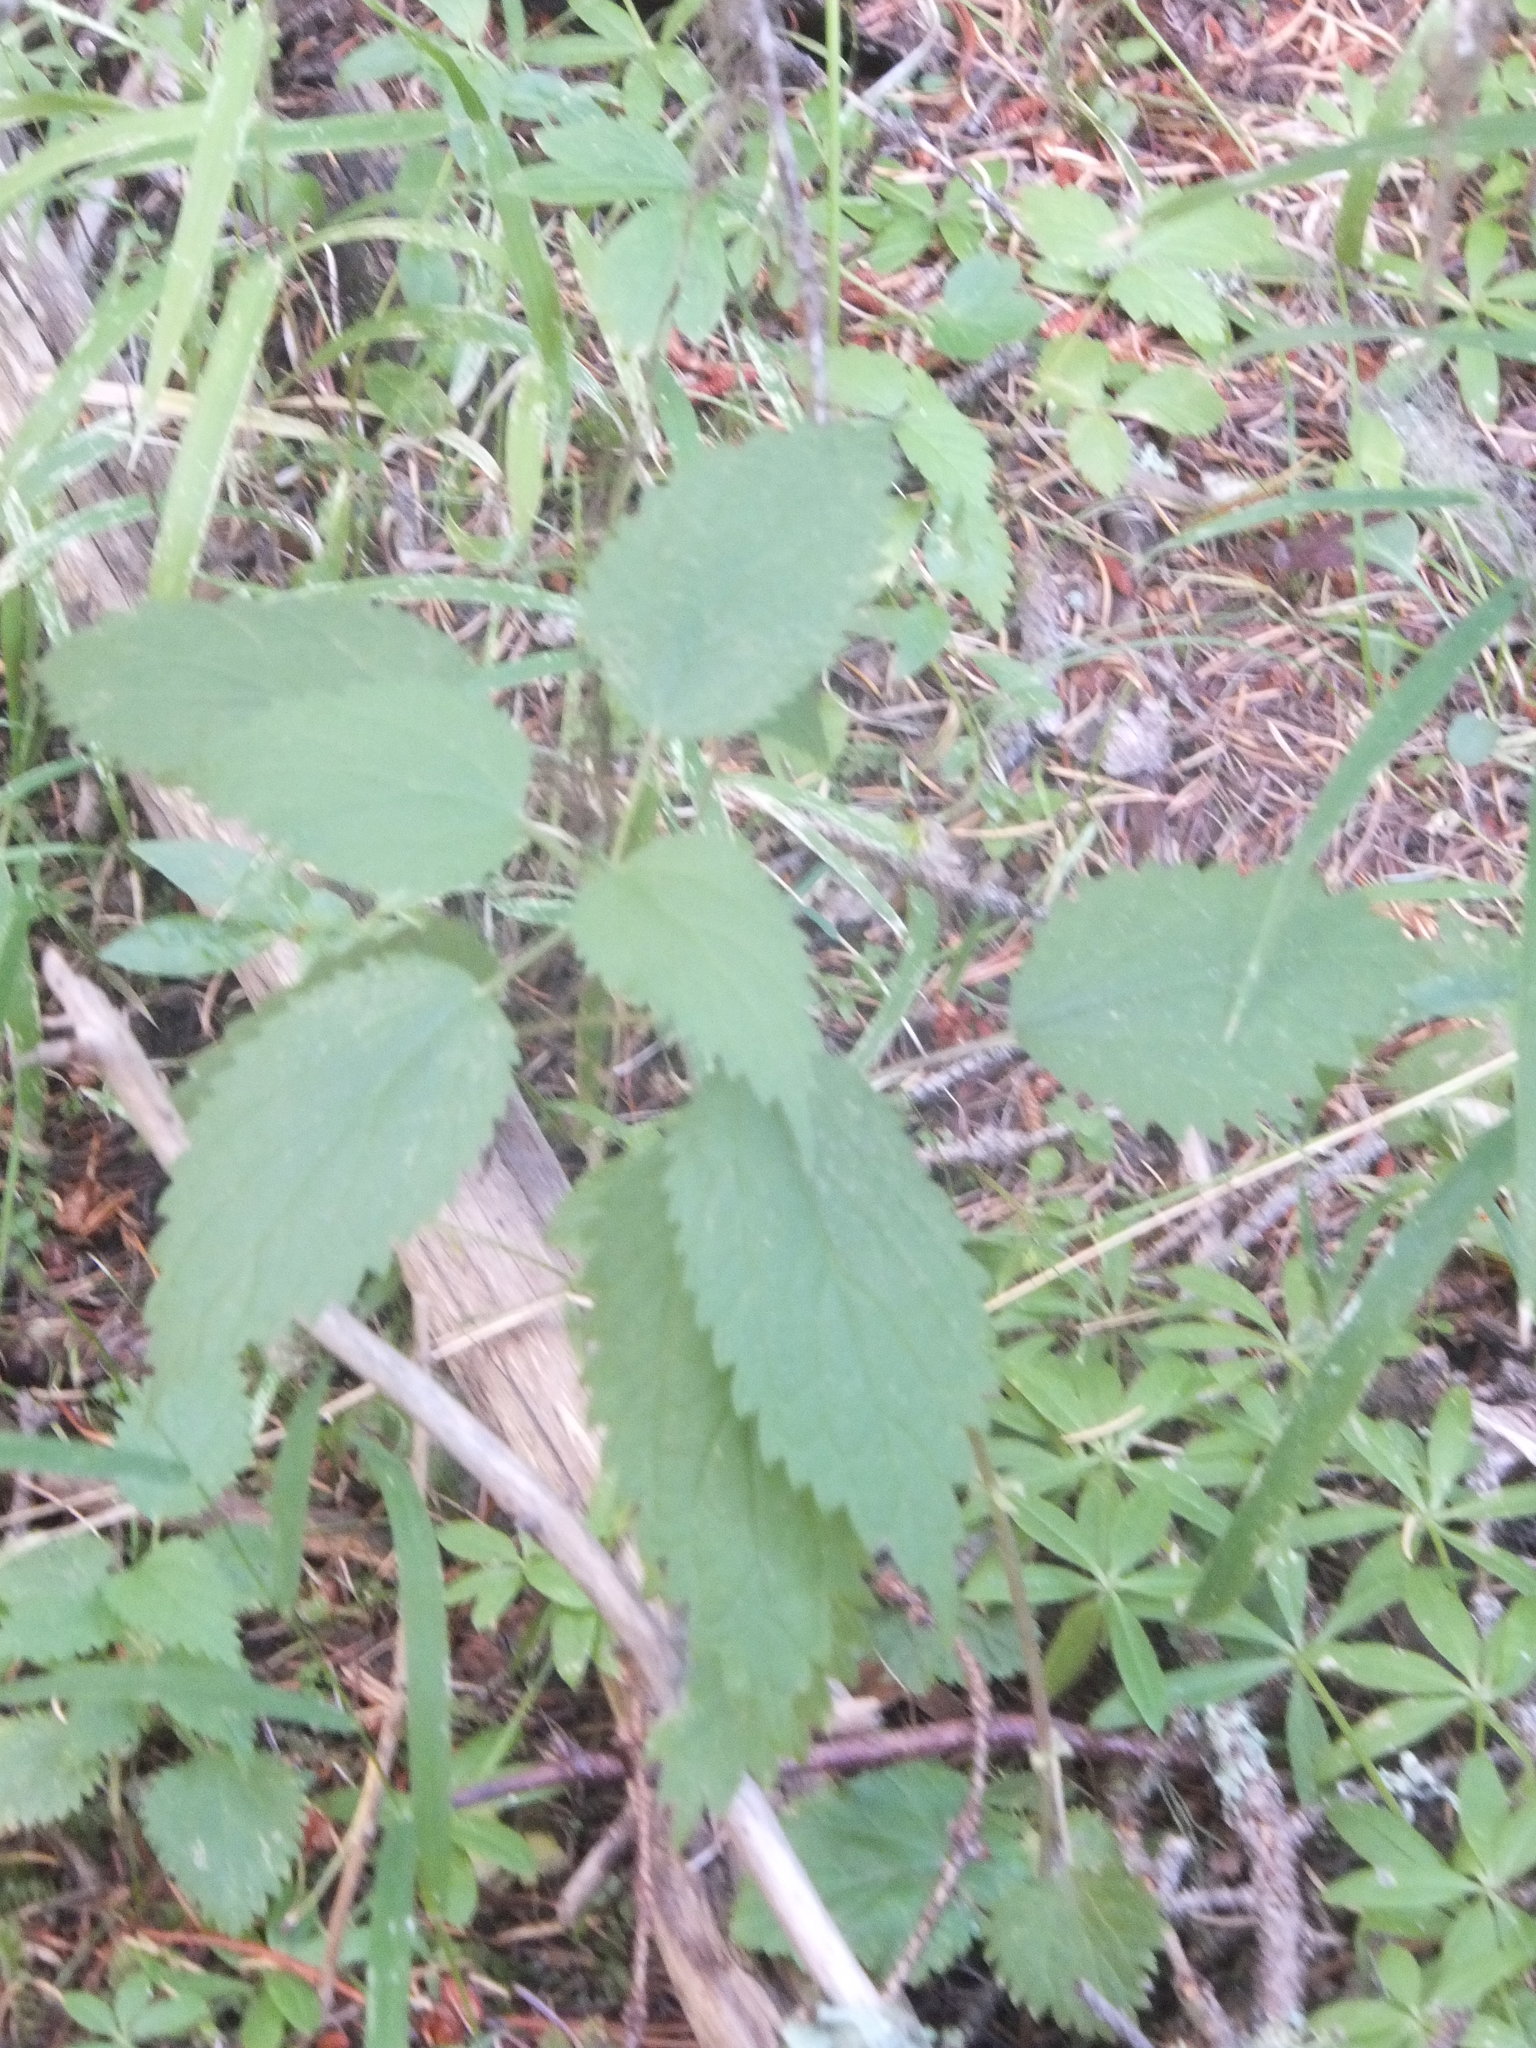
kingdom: Plantae
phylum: Tracheophyta
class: Magnoliopsida
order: Rosales
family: Urticaceae
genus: Urtica
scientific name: Urtica dioica
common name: Common nettle
